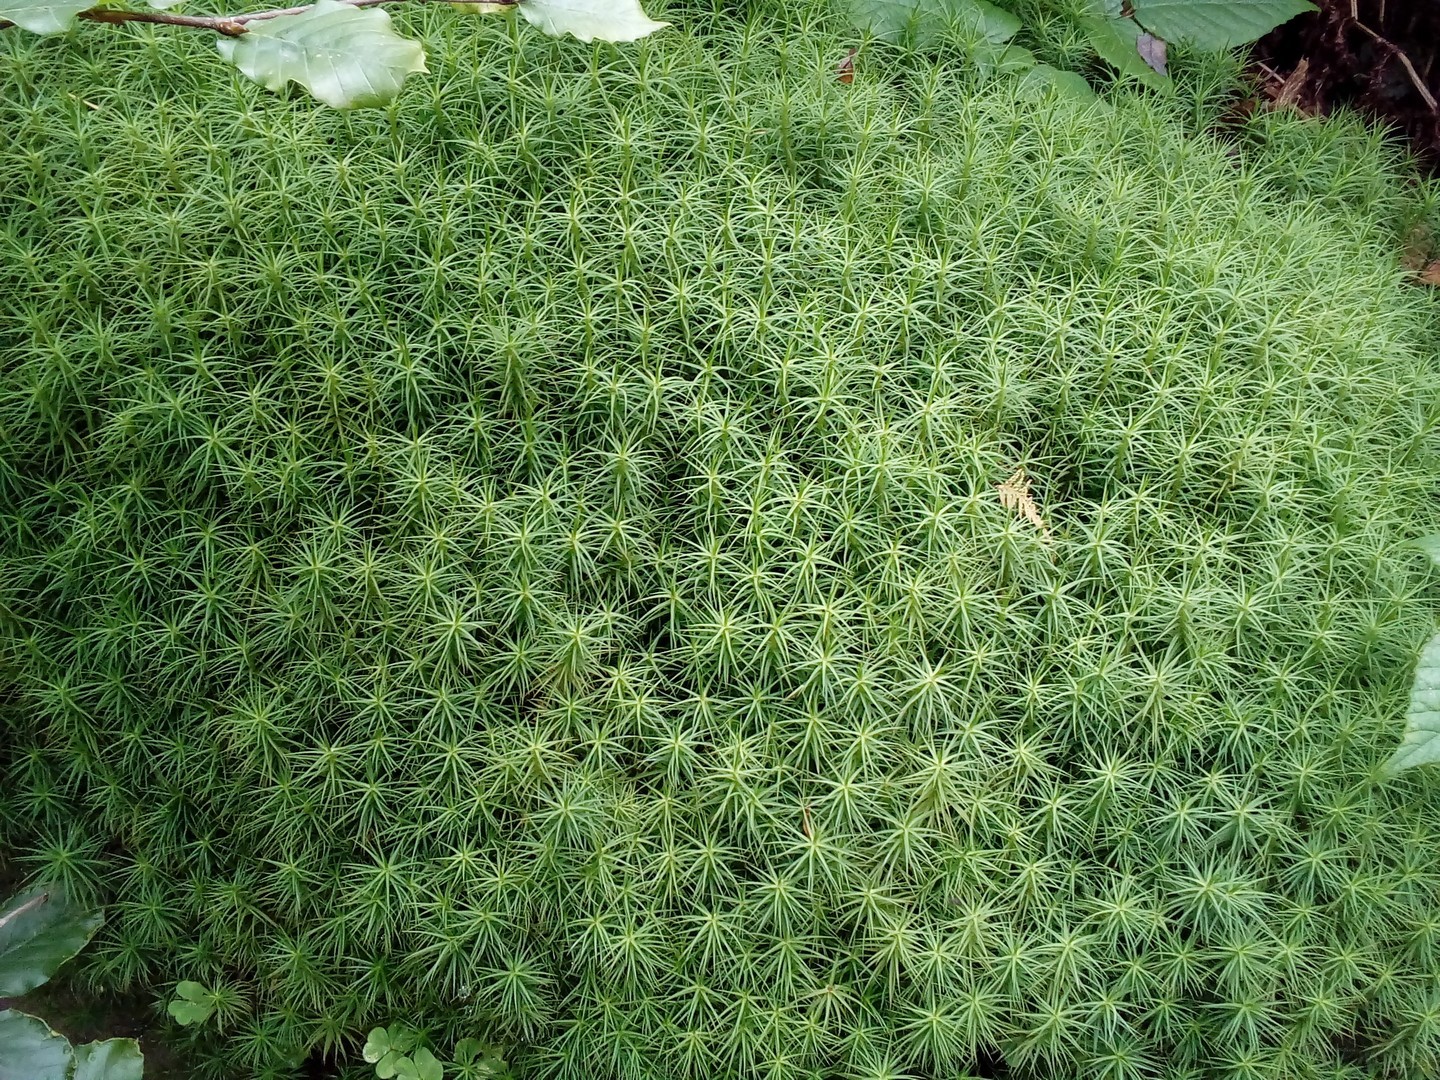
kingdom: Plantae
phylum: Bryophyta
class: Polytrichopsida
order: Polytrichales
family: Polytrichaceae
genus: Polytrichum
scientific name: Polytrichum commune
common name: Common haircap
